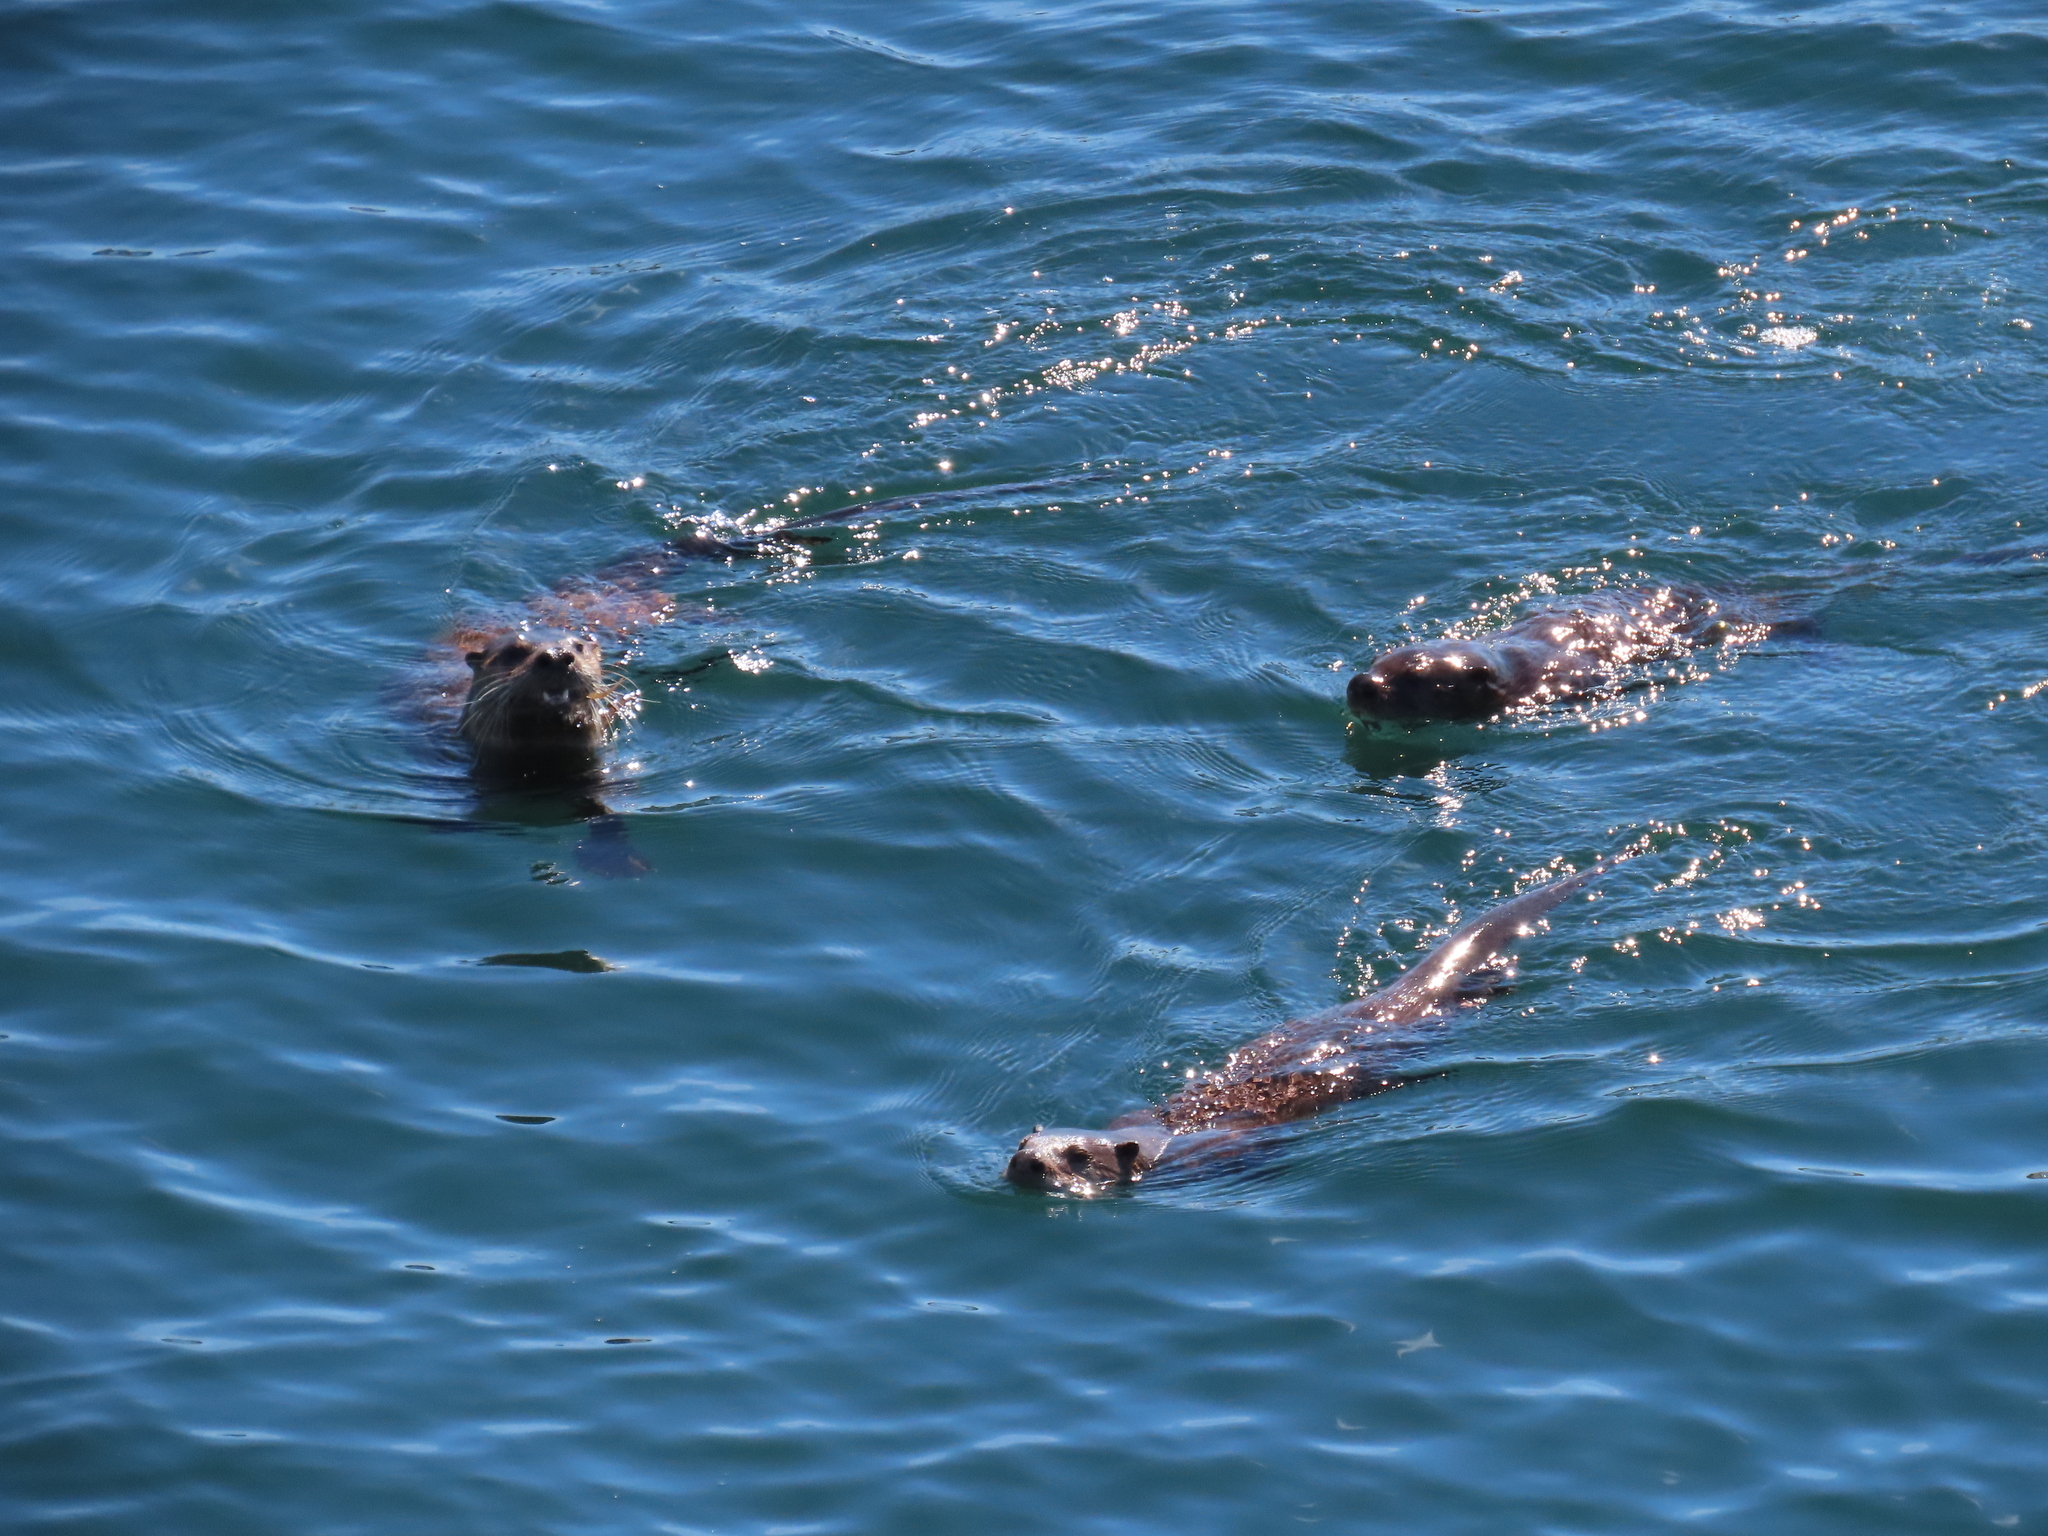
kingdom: Animalia
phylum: Chordata
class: Mammalia
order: Carnivora
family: Mustelidae
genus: Lontra
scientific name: Lontra canadensis
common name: North american river otter
